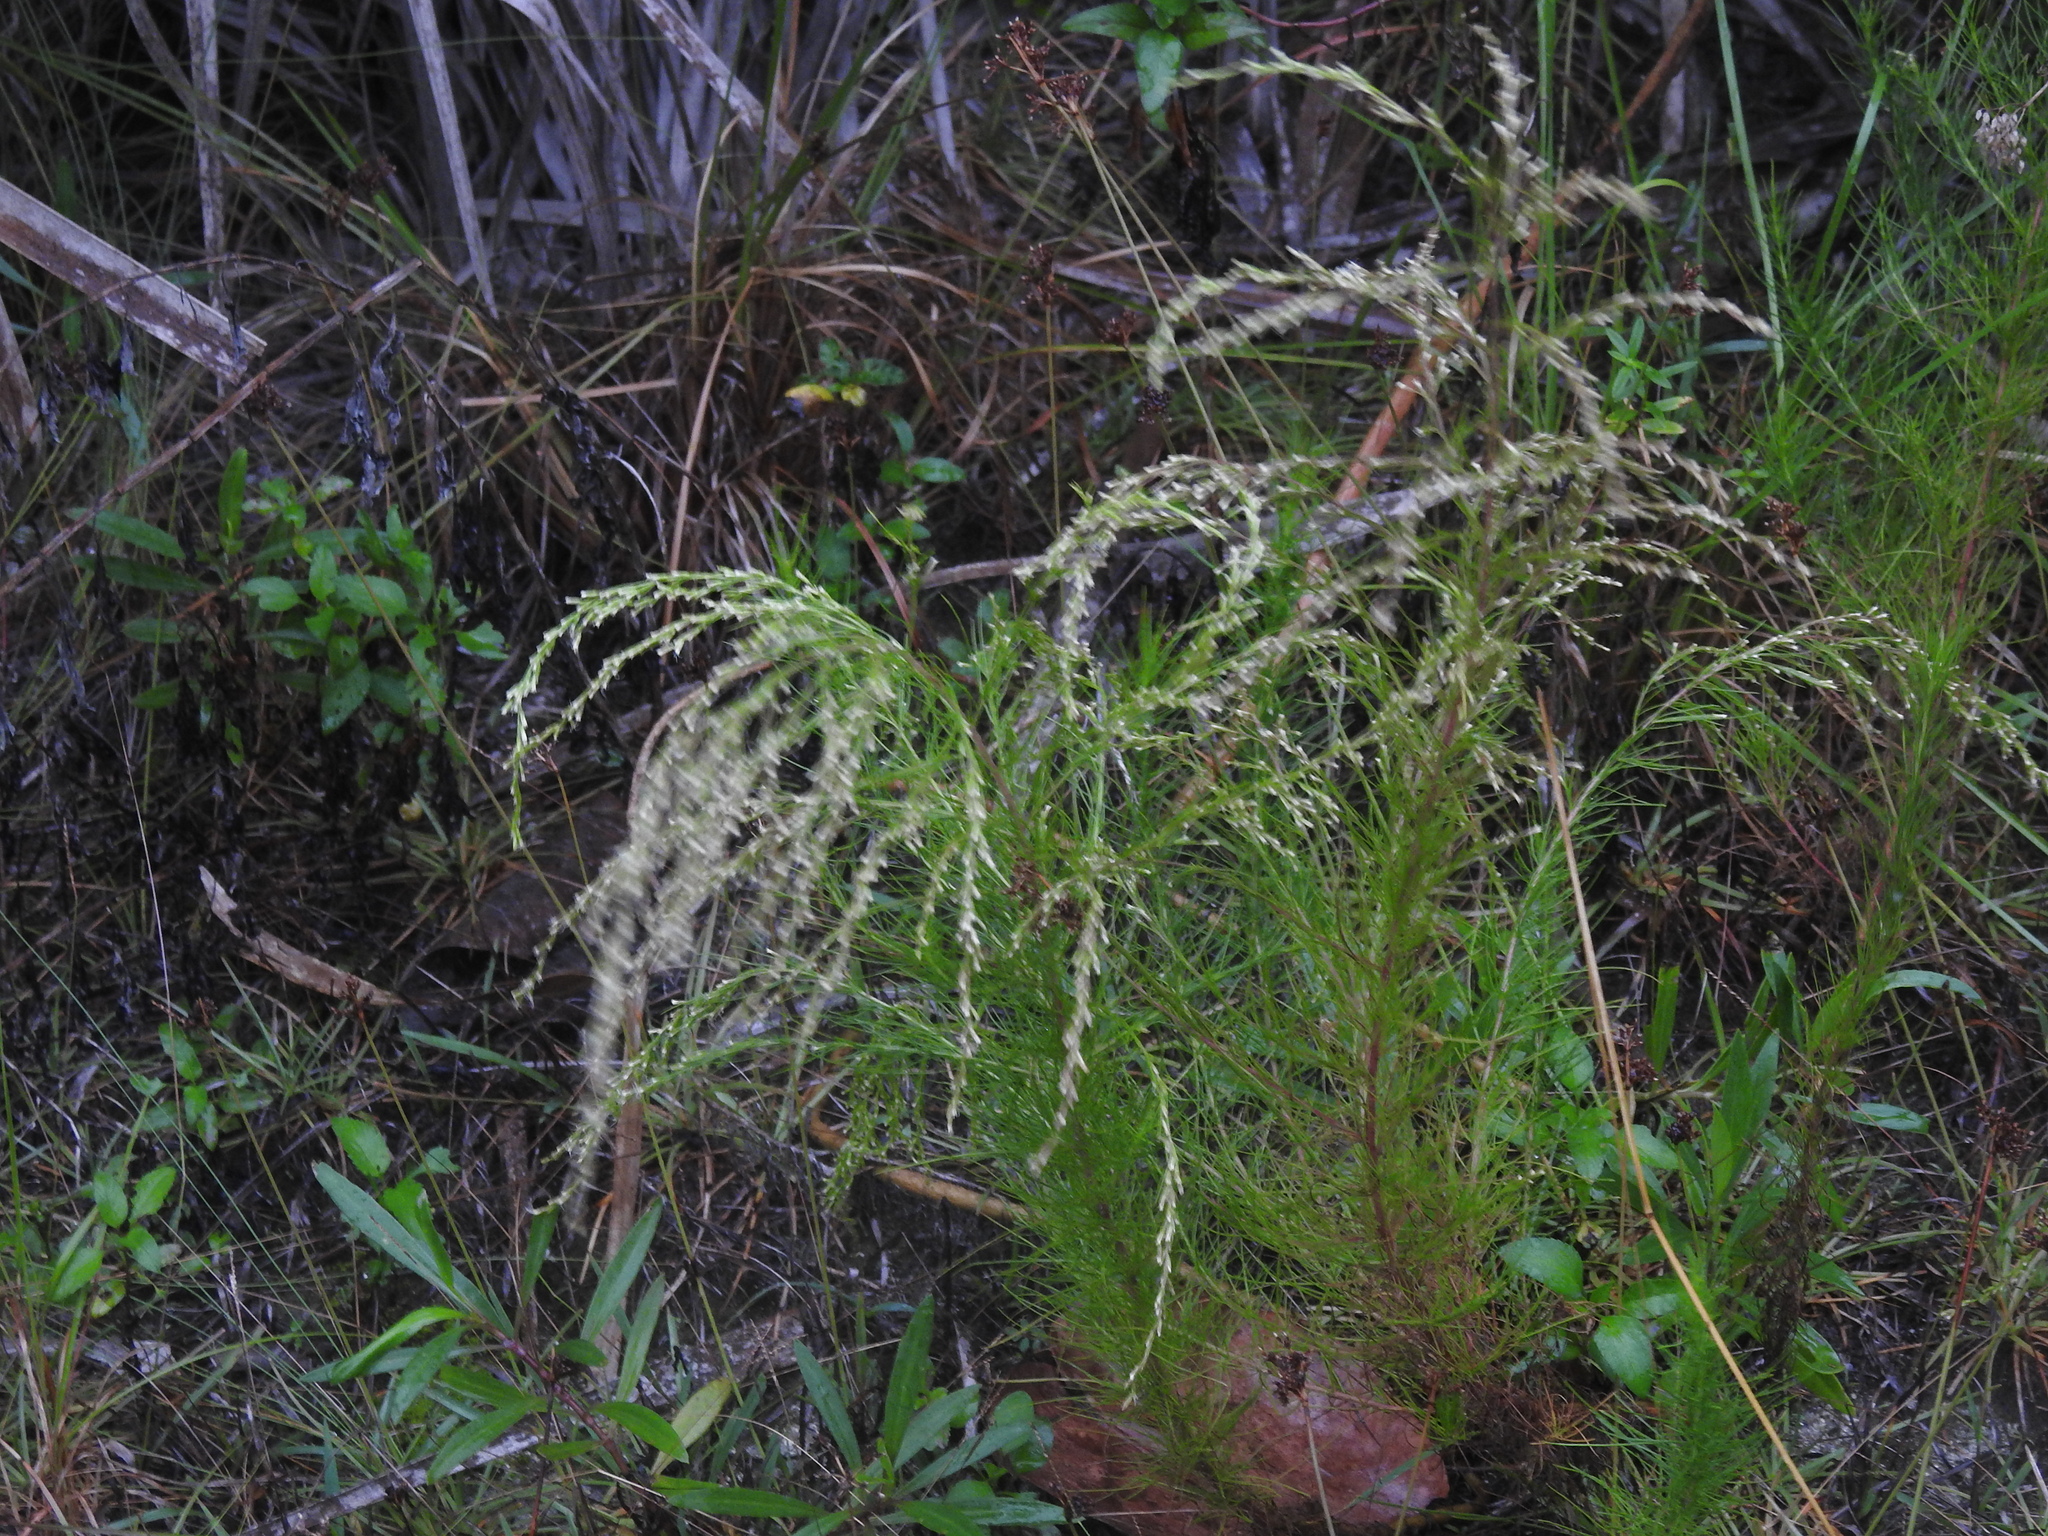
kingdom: Plantae
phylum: Tracheophyta
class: Magnoliopsida
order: Asterales
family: Asteraceae
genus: Eupatorium
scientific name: Eupatorium leptophyllum
